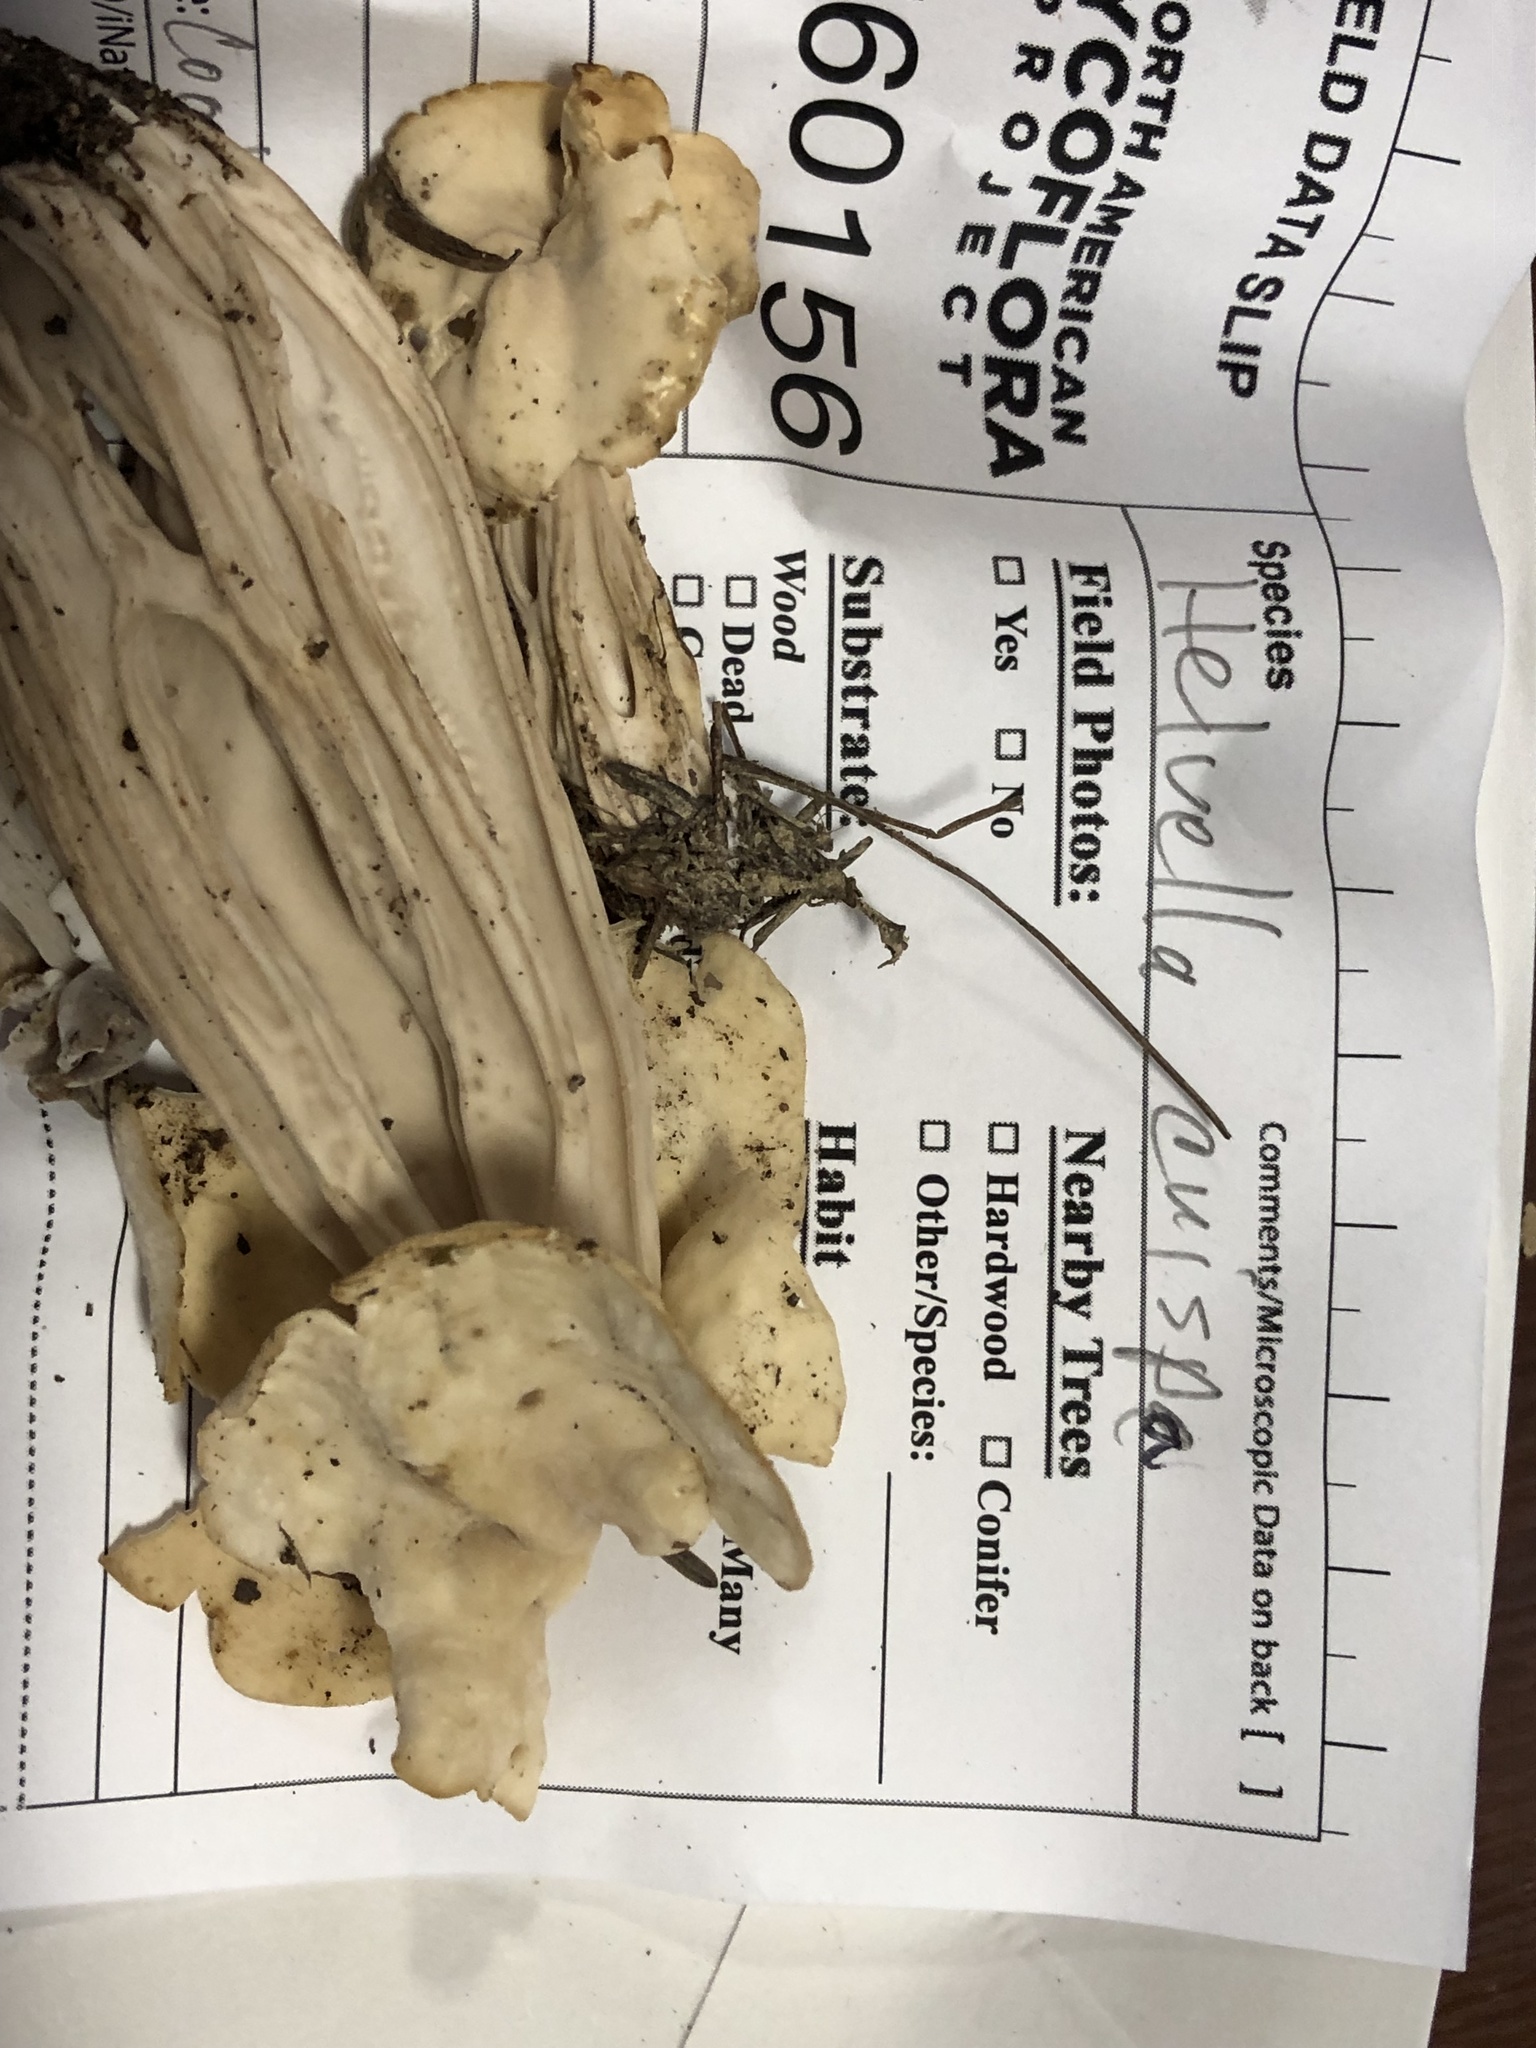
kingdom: Fungi
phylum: Ascomycota
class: Pezizomycetes
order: Pezizales
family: Helvellaceae
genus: Helvella
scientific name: Helvella crispa
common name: White saddle
